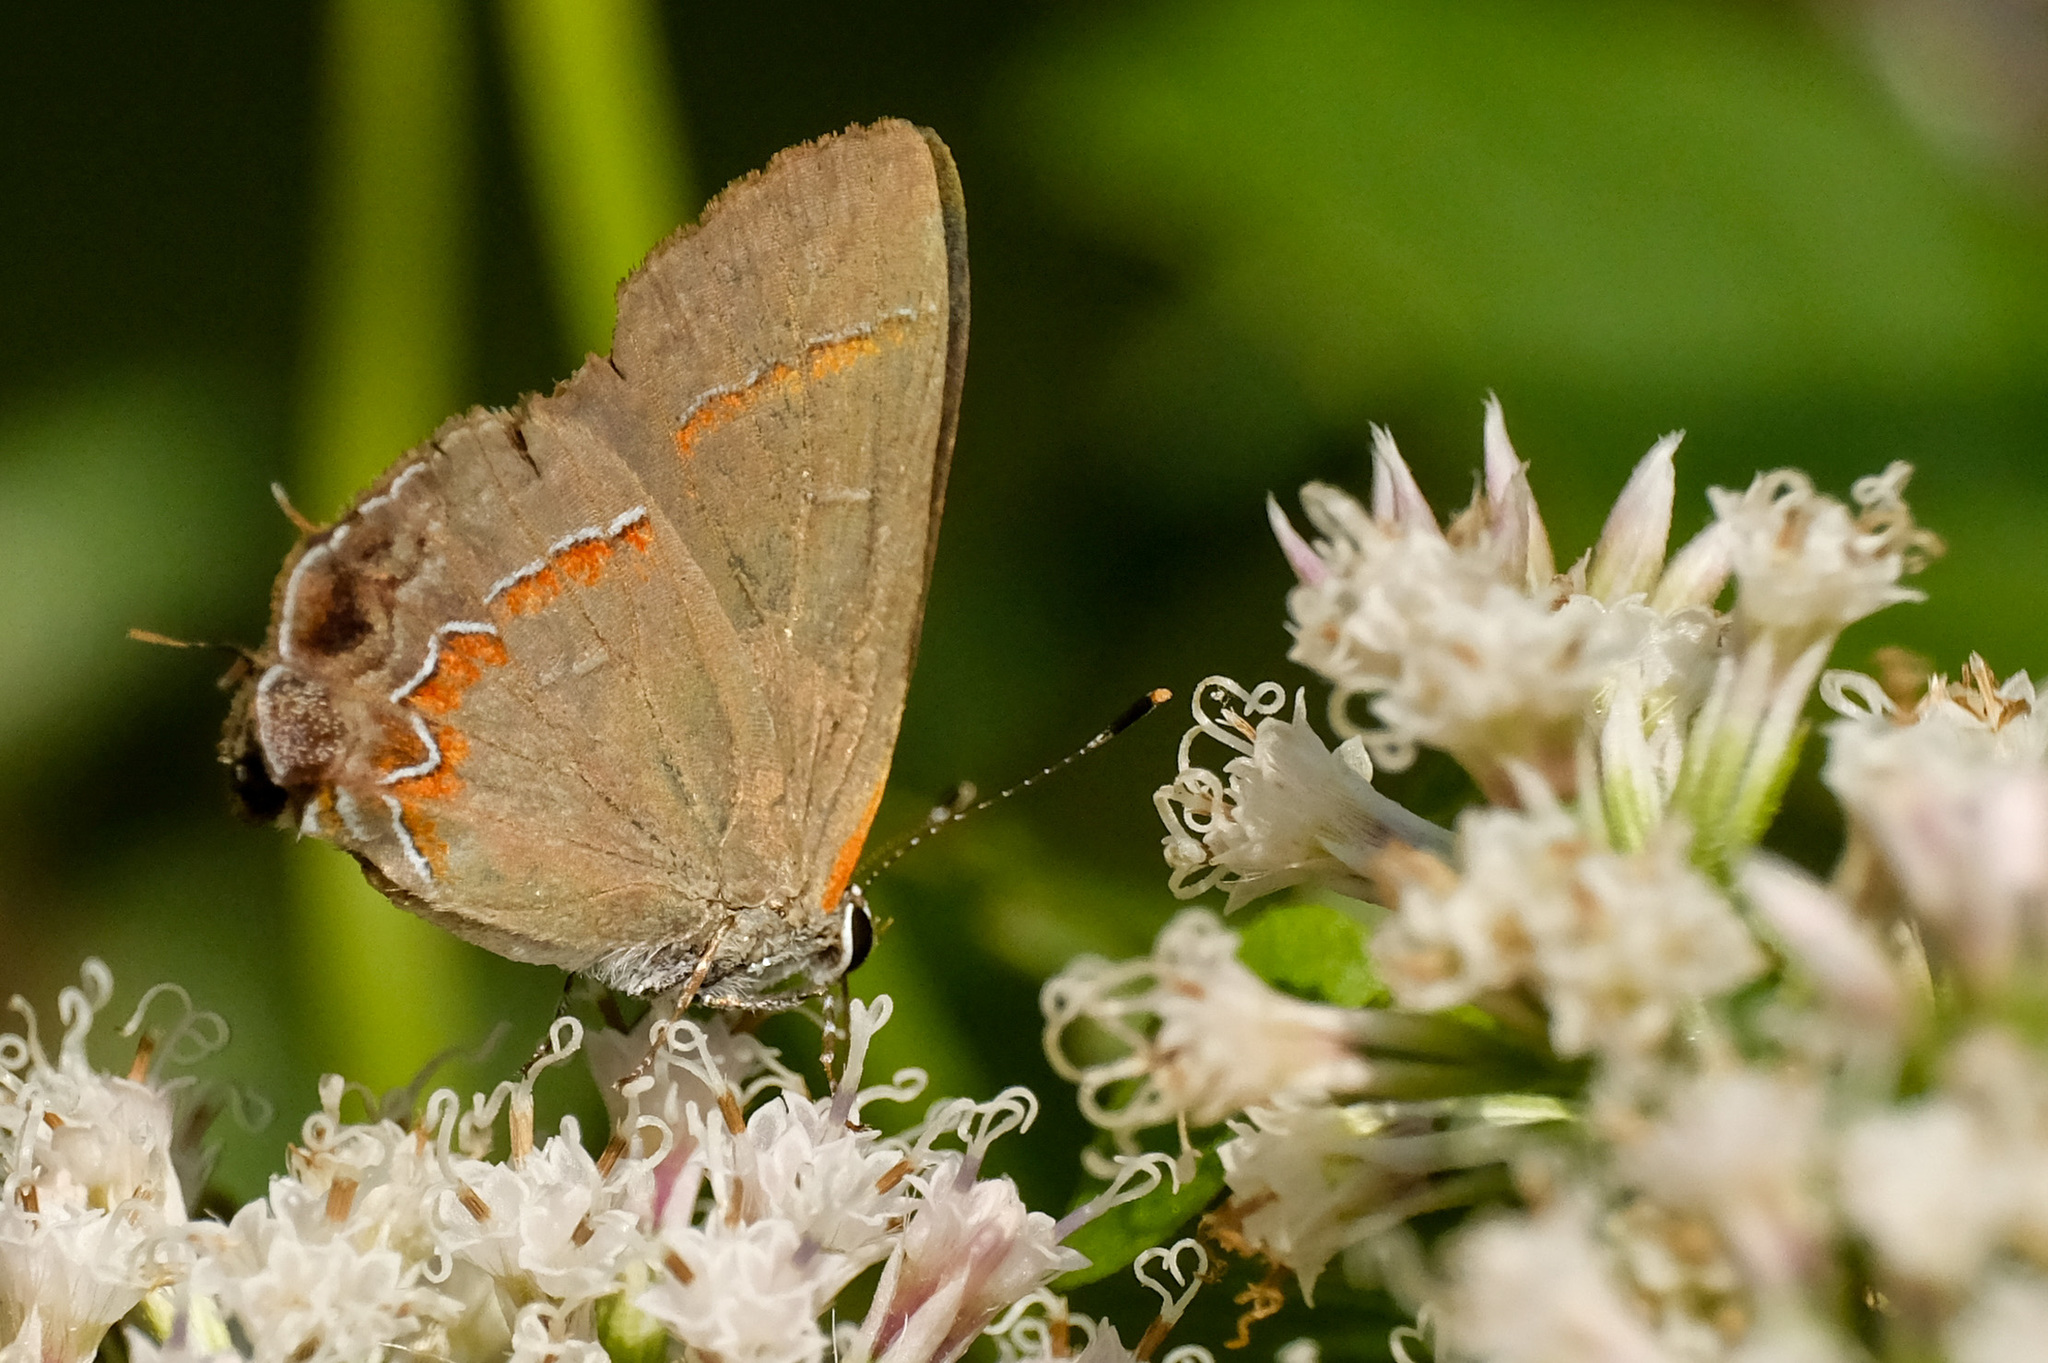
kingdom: Animalia
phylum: Arthropoda
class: Insecta
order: Lepidoptera
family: Lycaenidae
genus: Calycopis
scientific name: Calycopis cecrops
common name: Red-banded hairstreak
